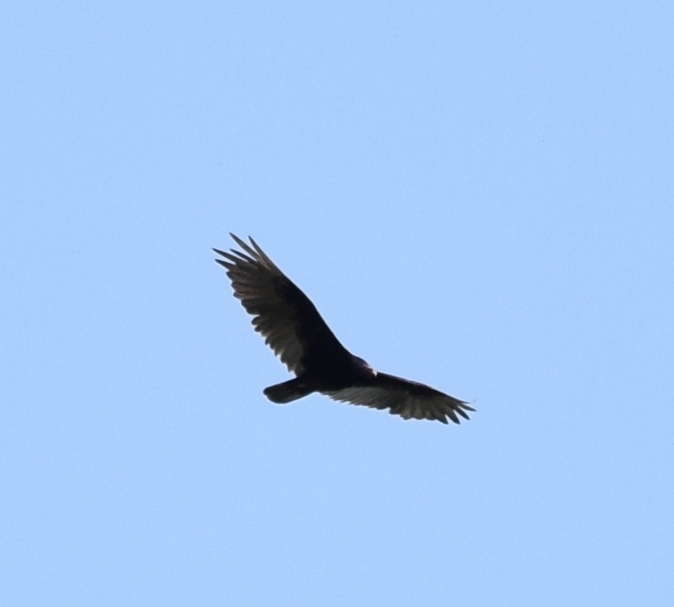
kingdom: Animalia
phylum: Chordata
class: Aves
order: Accipitriformes
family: Cathartidae
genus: Cathartes
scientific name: Cathartes aura
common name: Turkey vulture
